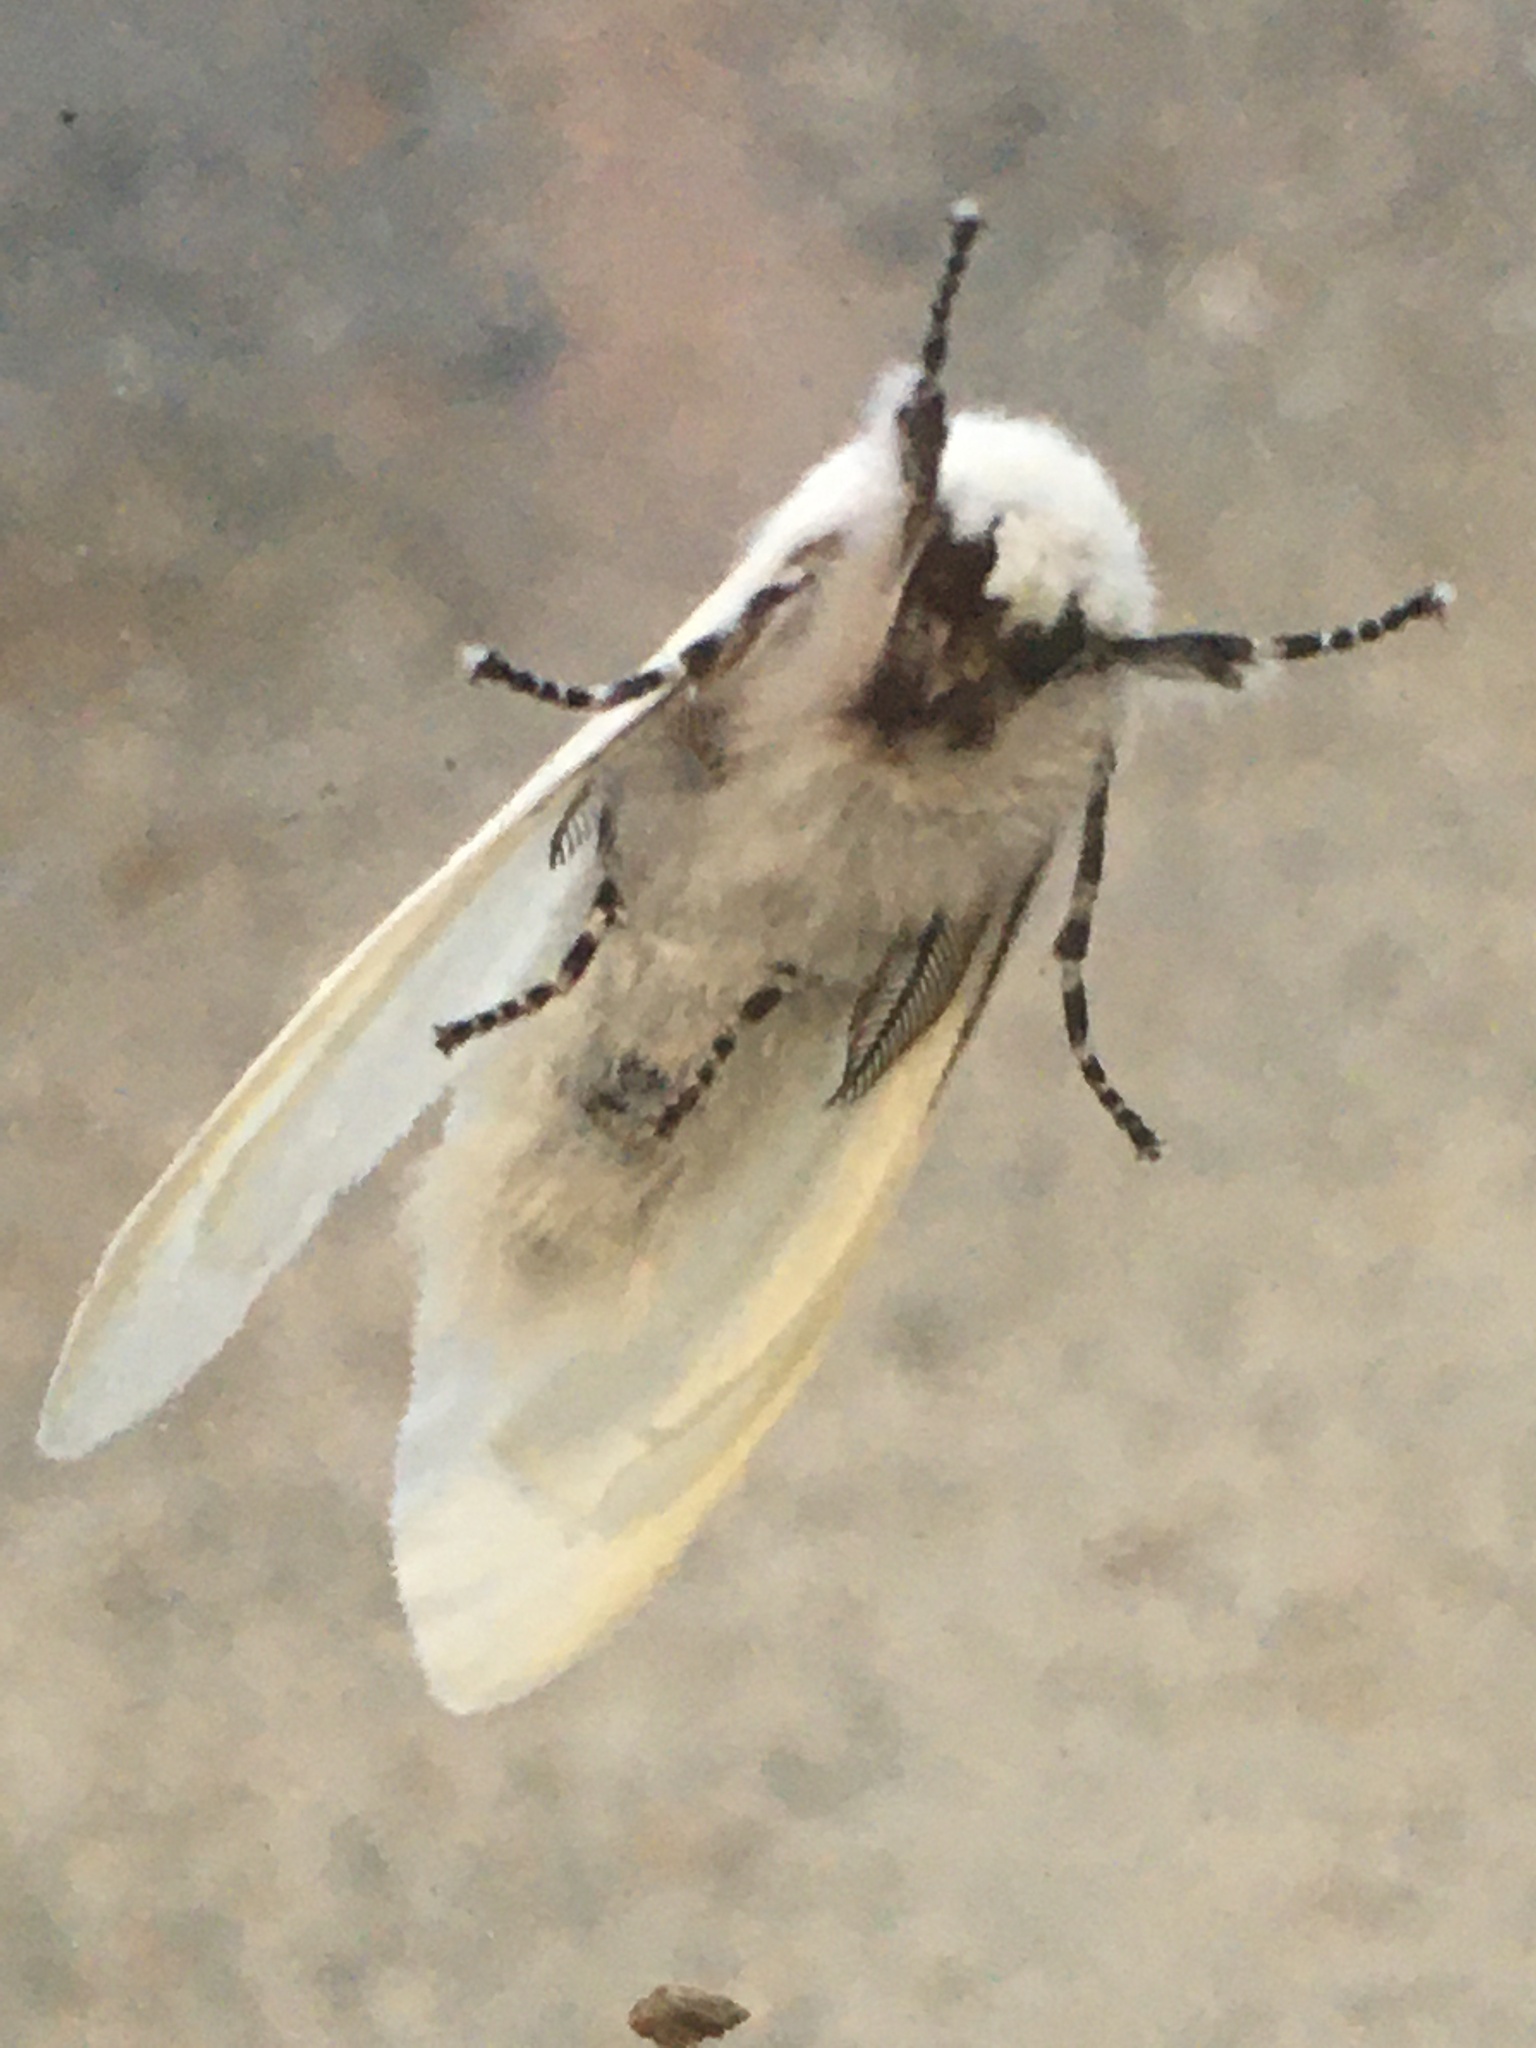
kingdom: Animalia
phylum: Arthropoda
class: Insecta
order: Lepidoptera
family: Erebidae
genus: Leucoma
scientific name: Leucoma salicis
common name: White satin moth
